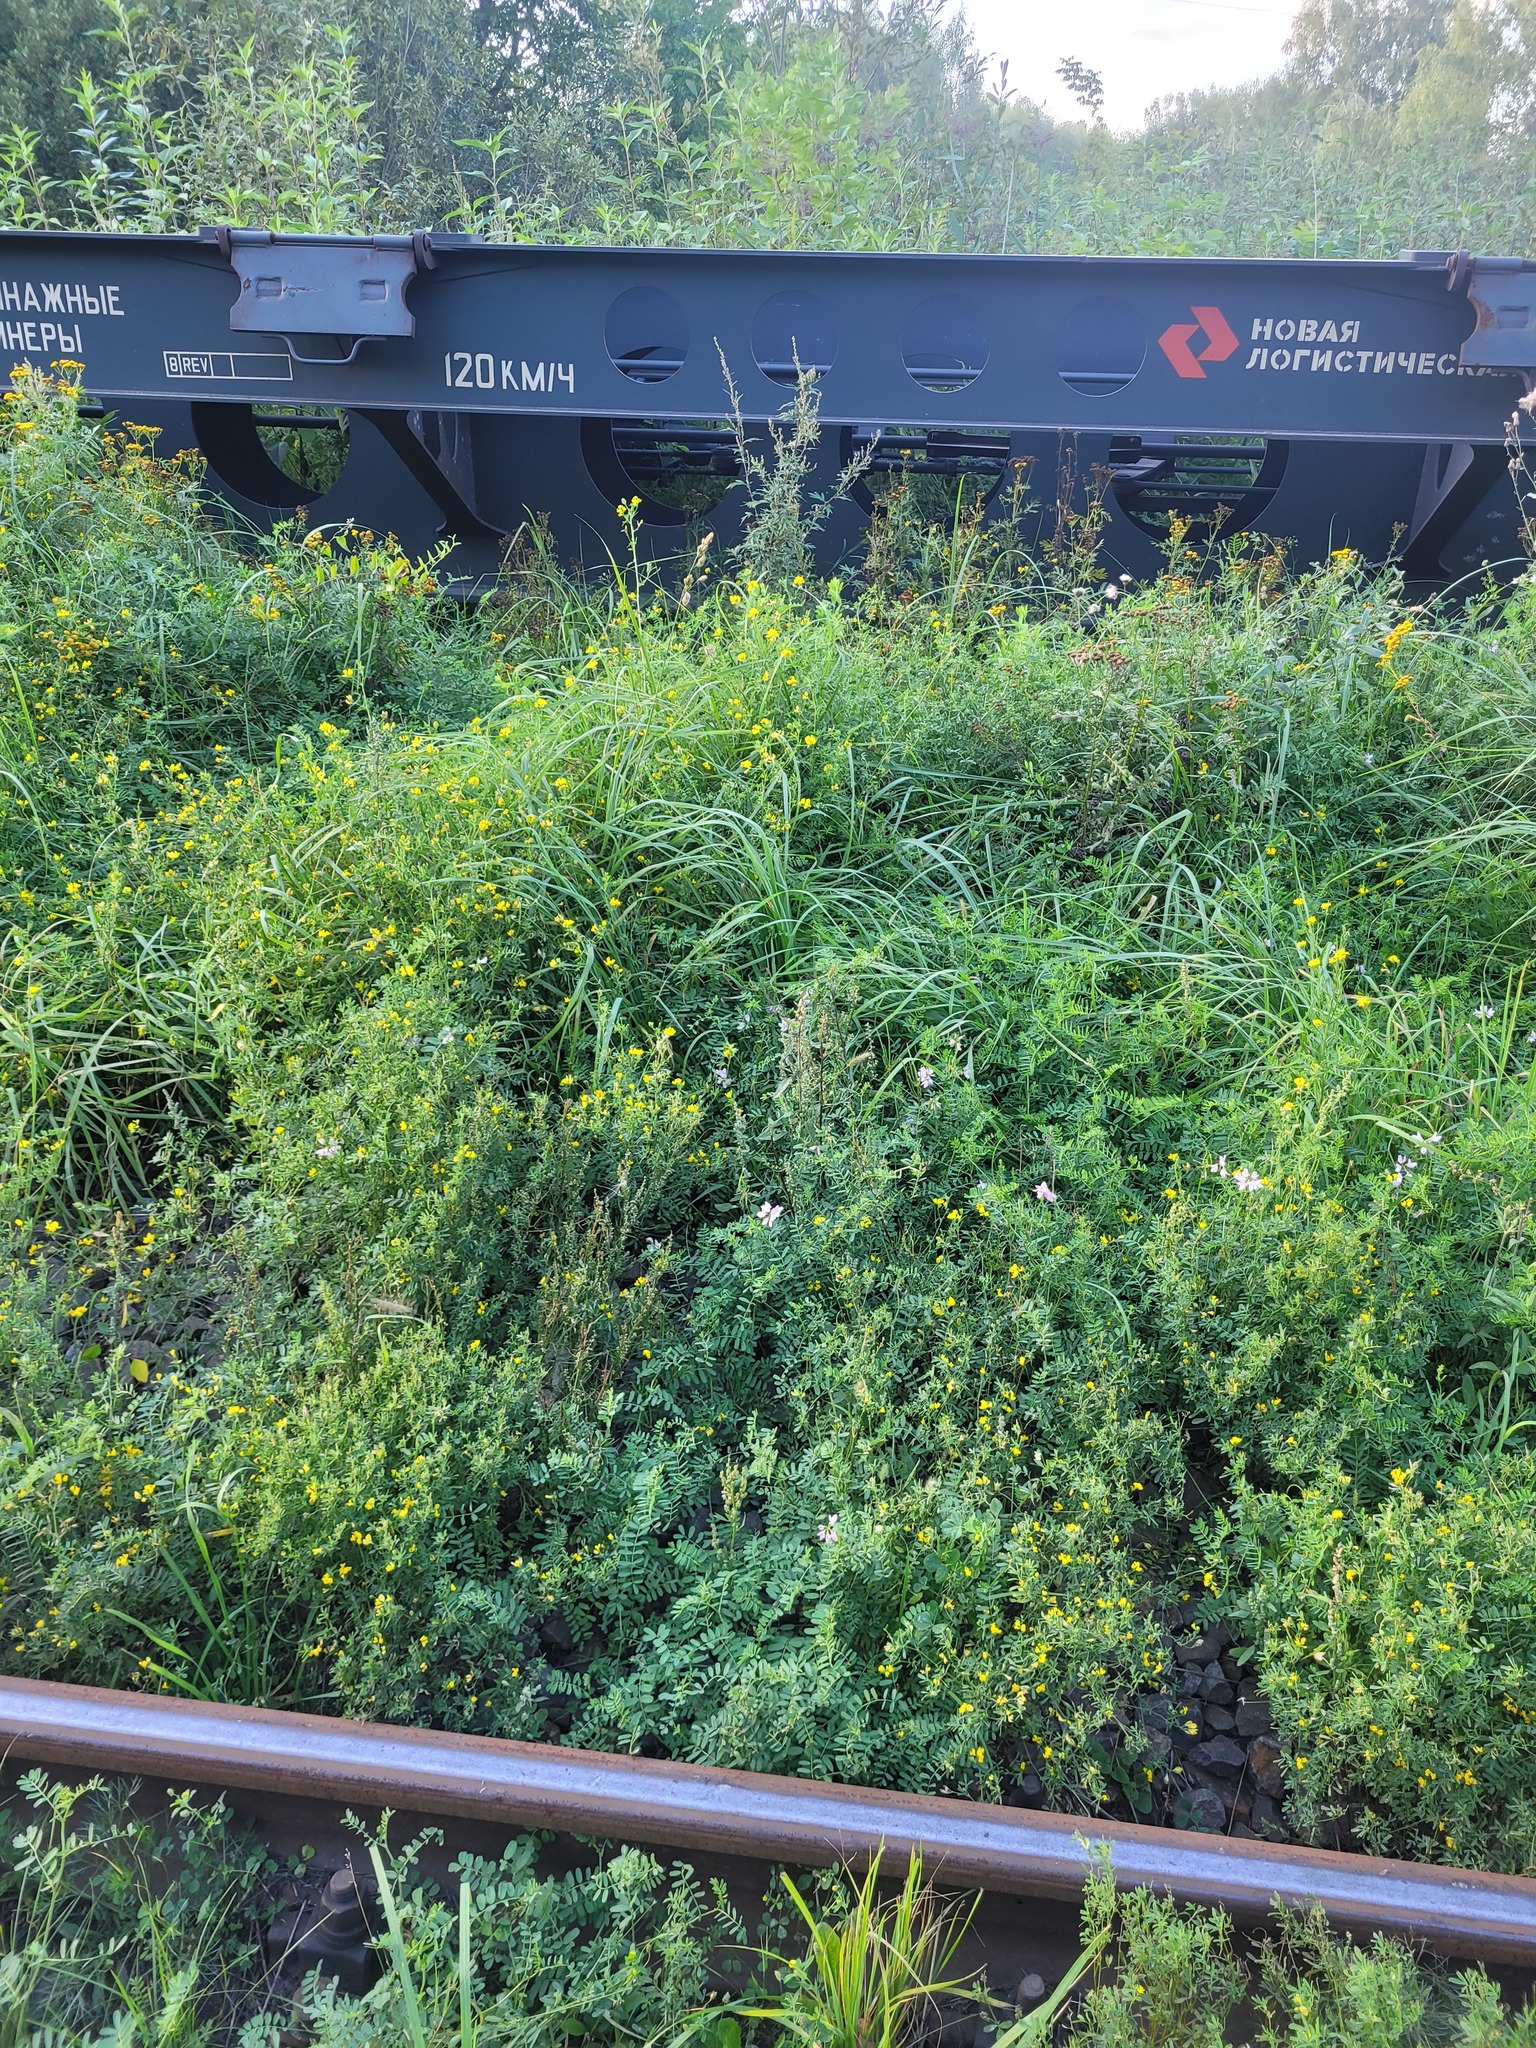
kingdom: Plantae
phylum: Tracheophyta
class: Magnoliopsida
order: Fabales
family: Fabaceae
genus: Coronilla
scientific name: Coronilla varia
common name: Crownvetch
